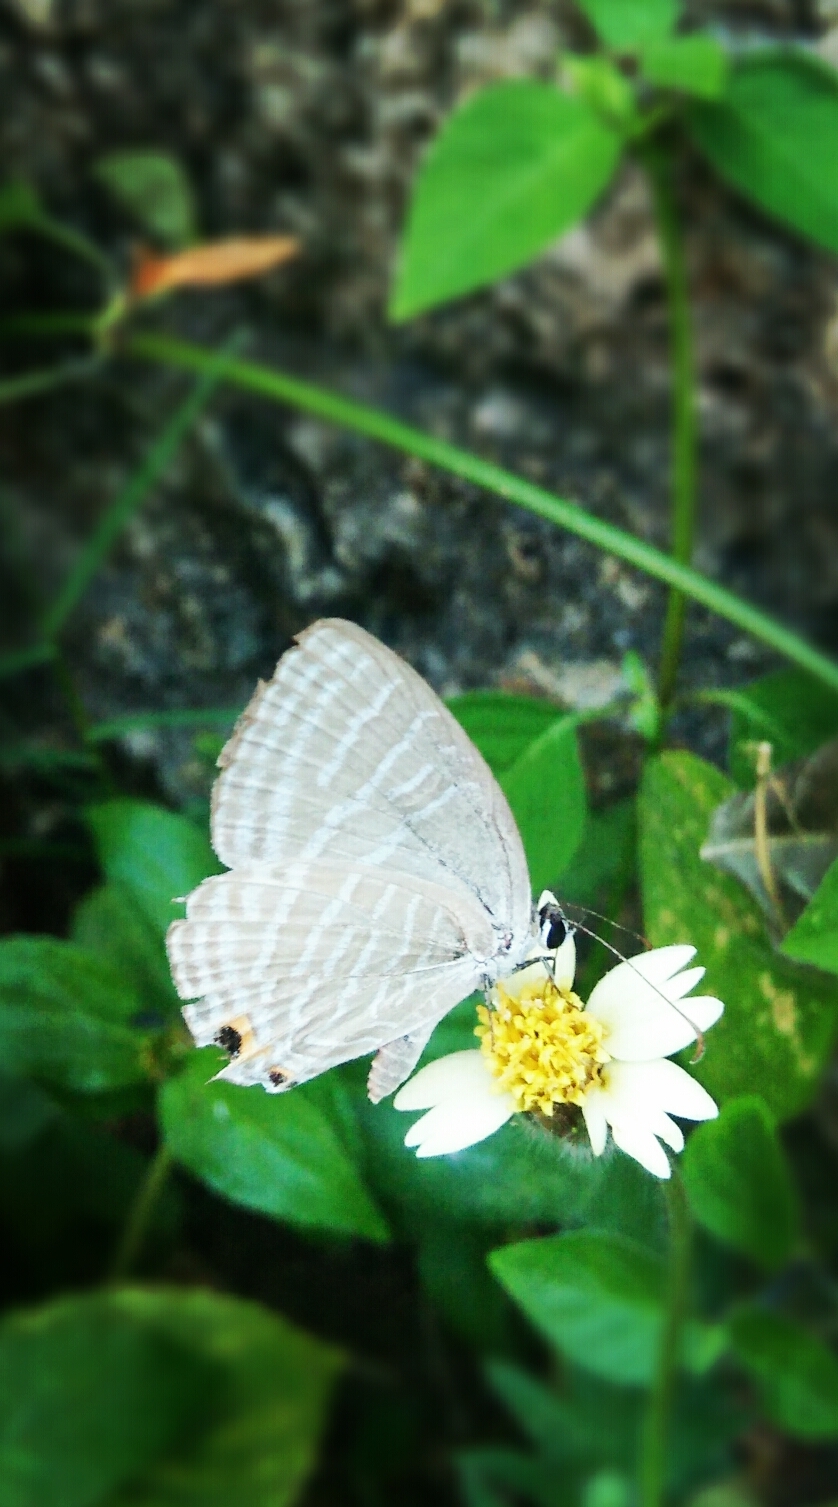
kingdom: Animalia
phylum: Arthropoda
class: Insecta
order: Lepidoptera
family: Lycaenidae
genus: Jamides
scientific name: Jamides celeno
